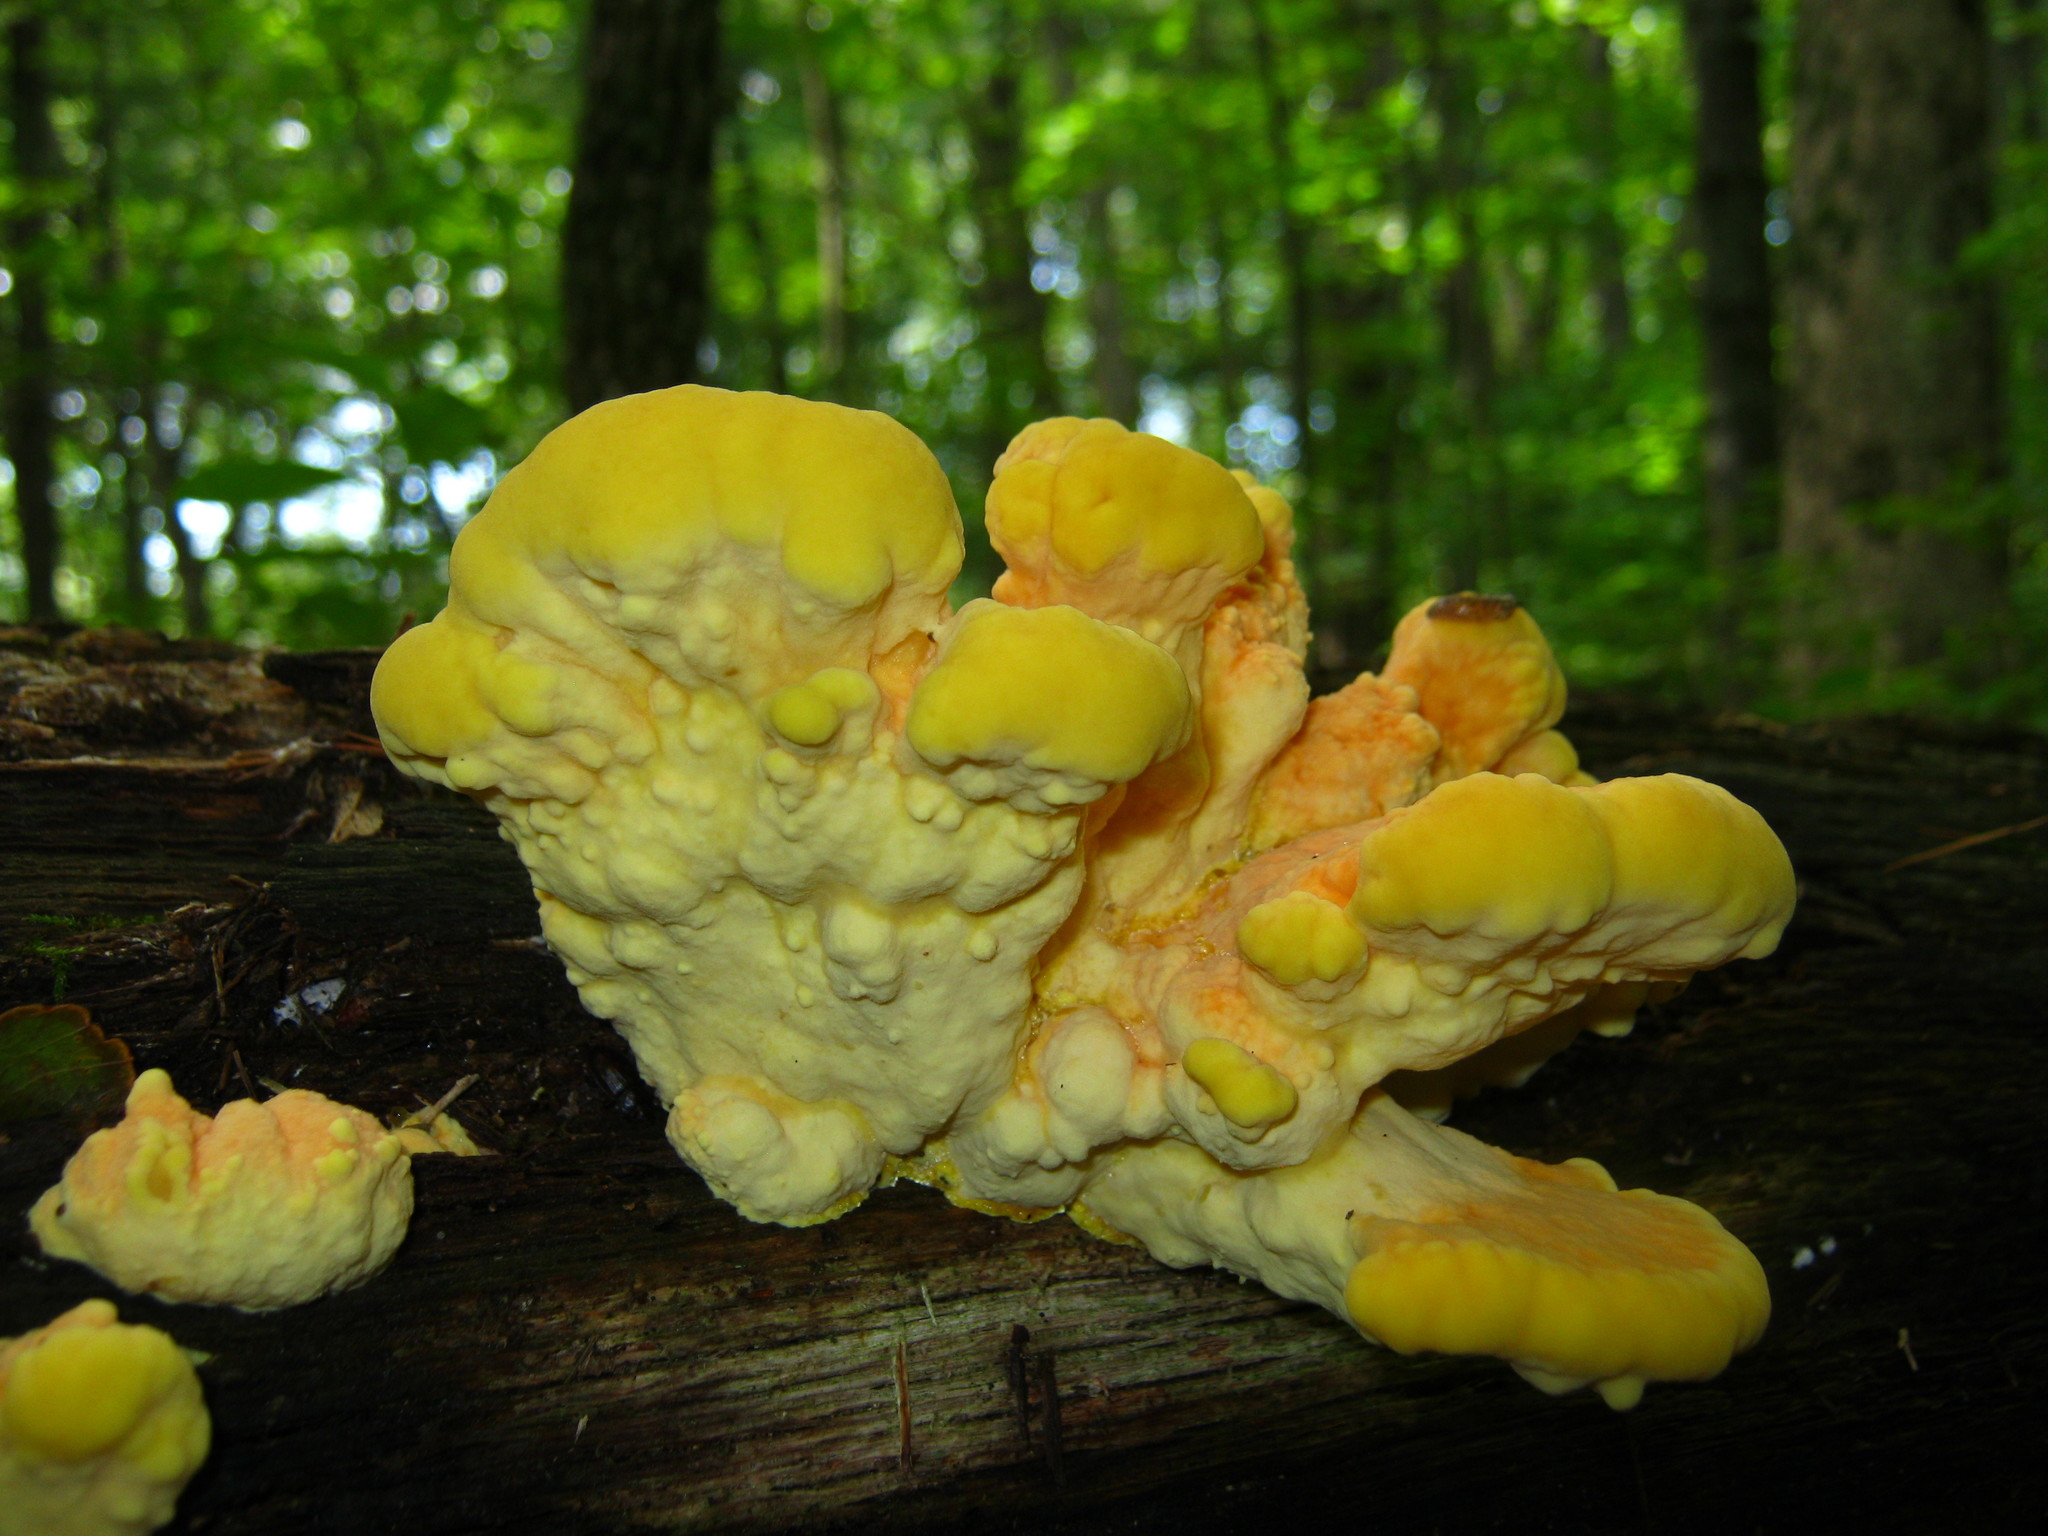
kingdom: Fungi
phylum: Basidiomycota
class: Agaricomycetes
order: Polyporales
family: Laetiporaceae
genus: Laetiporus
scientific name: Laetiporus sulphureus
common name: Chicken of the woods
